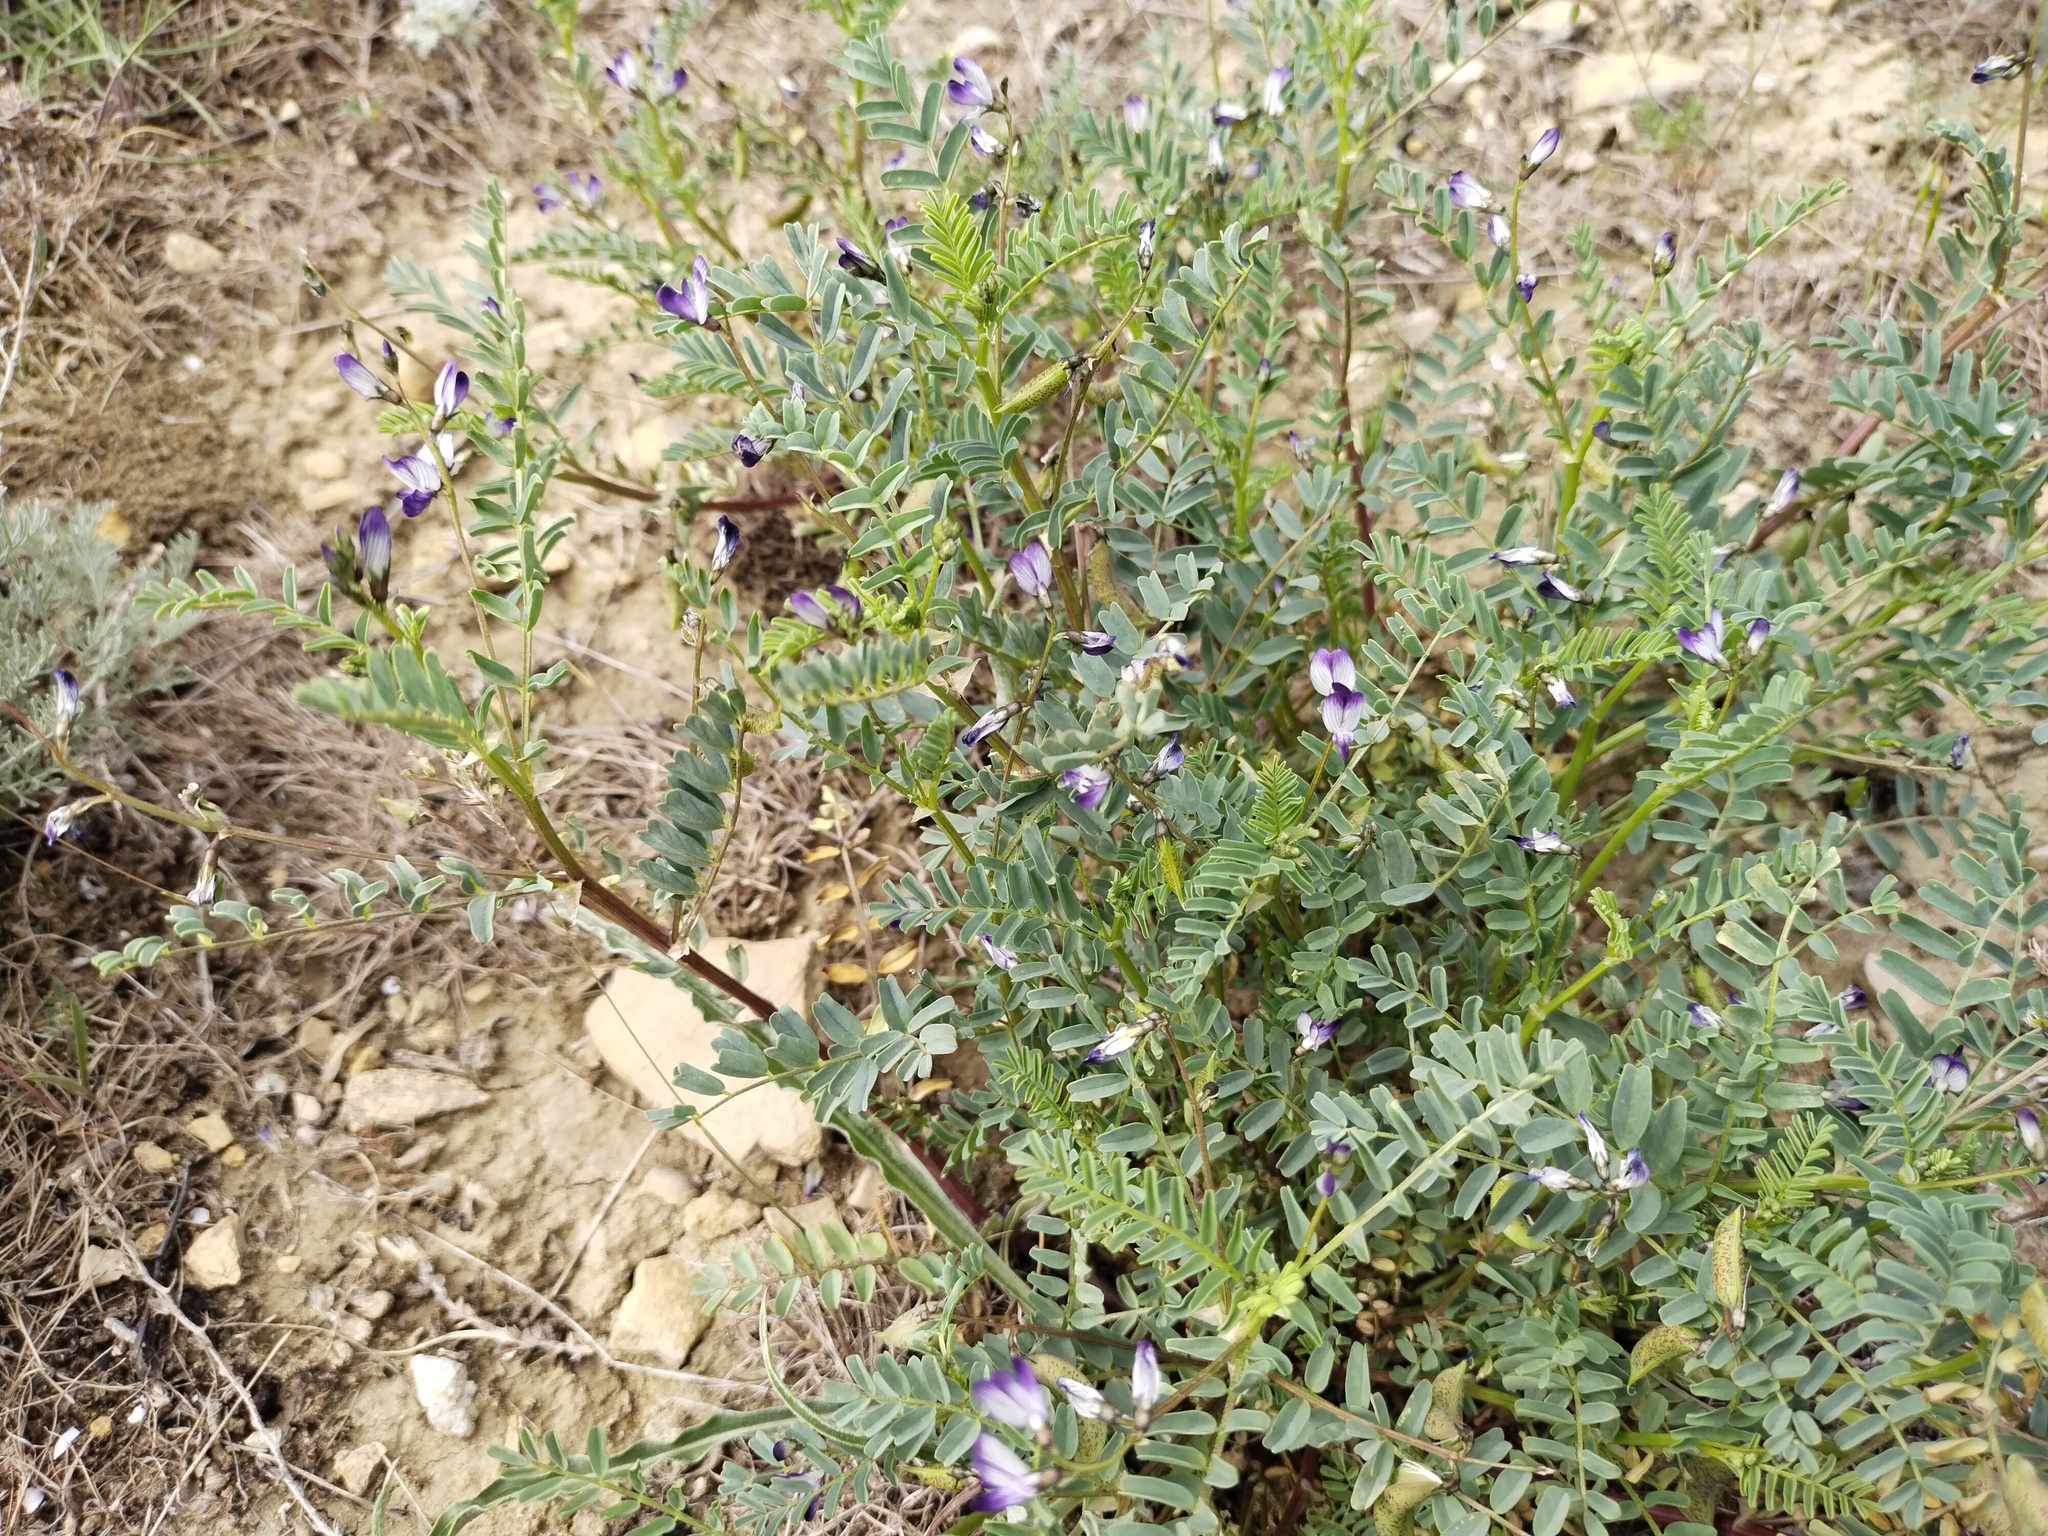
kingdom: Plantae
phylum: Tracheophyta
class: Magnoliopsida
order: Fabales
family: Fabaceae
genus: Astragalus
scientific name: Astragalus guttatus
